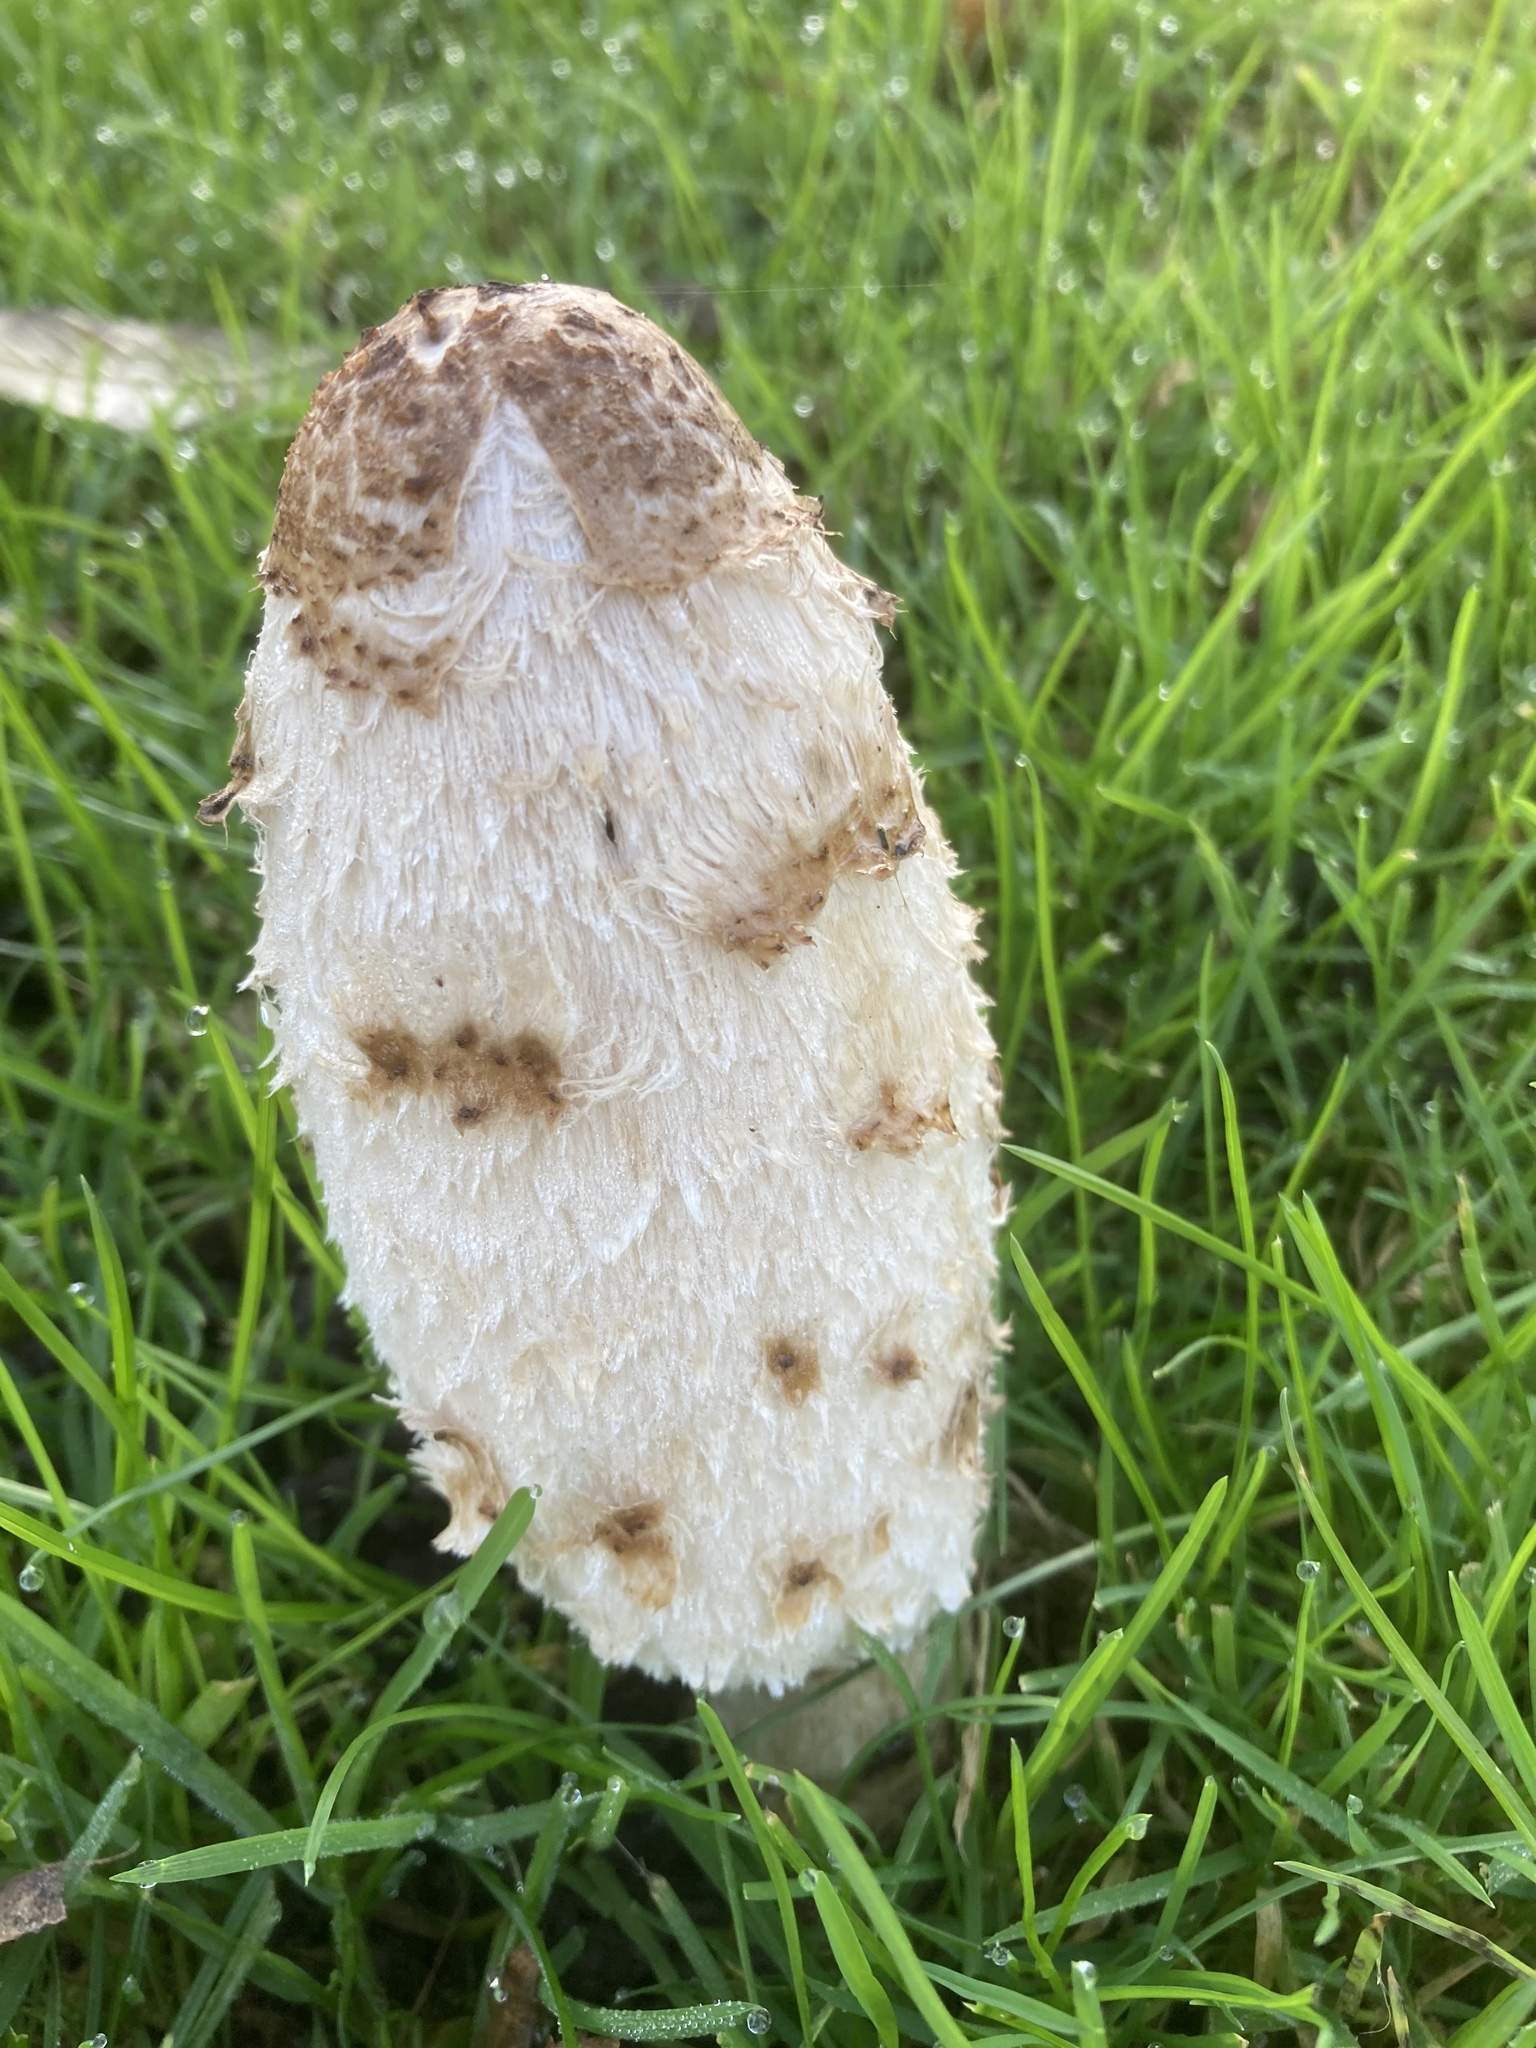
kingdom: Fungi
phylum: Basidiomycota
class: Agaricomycetes
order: Agaricales
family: Agaricaceae
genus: Coprinus
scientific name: Coprinus comatus
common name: Lawyer's wig
